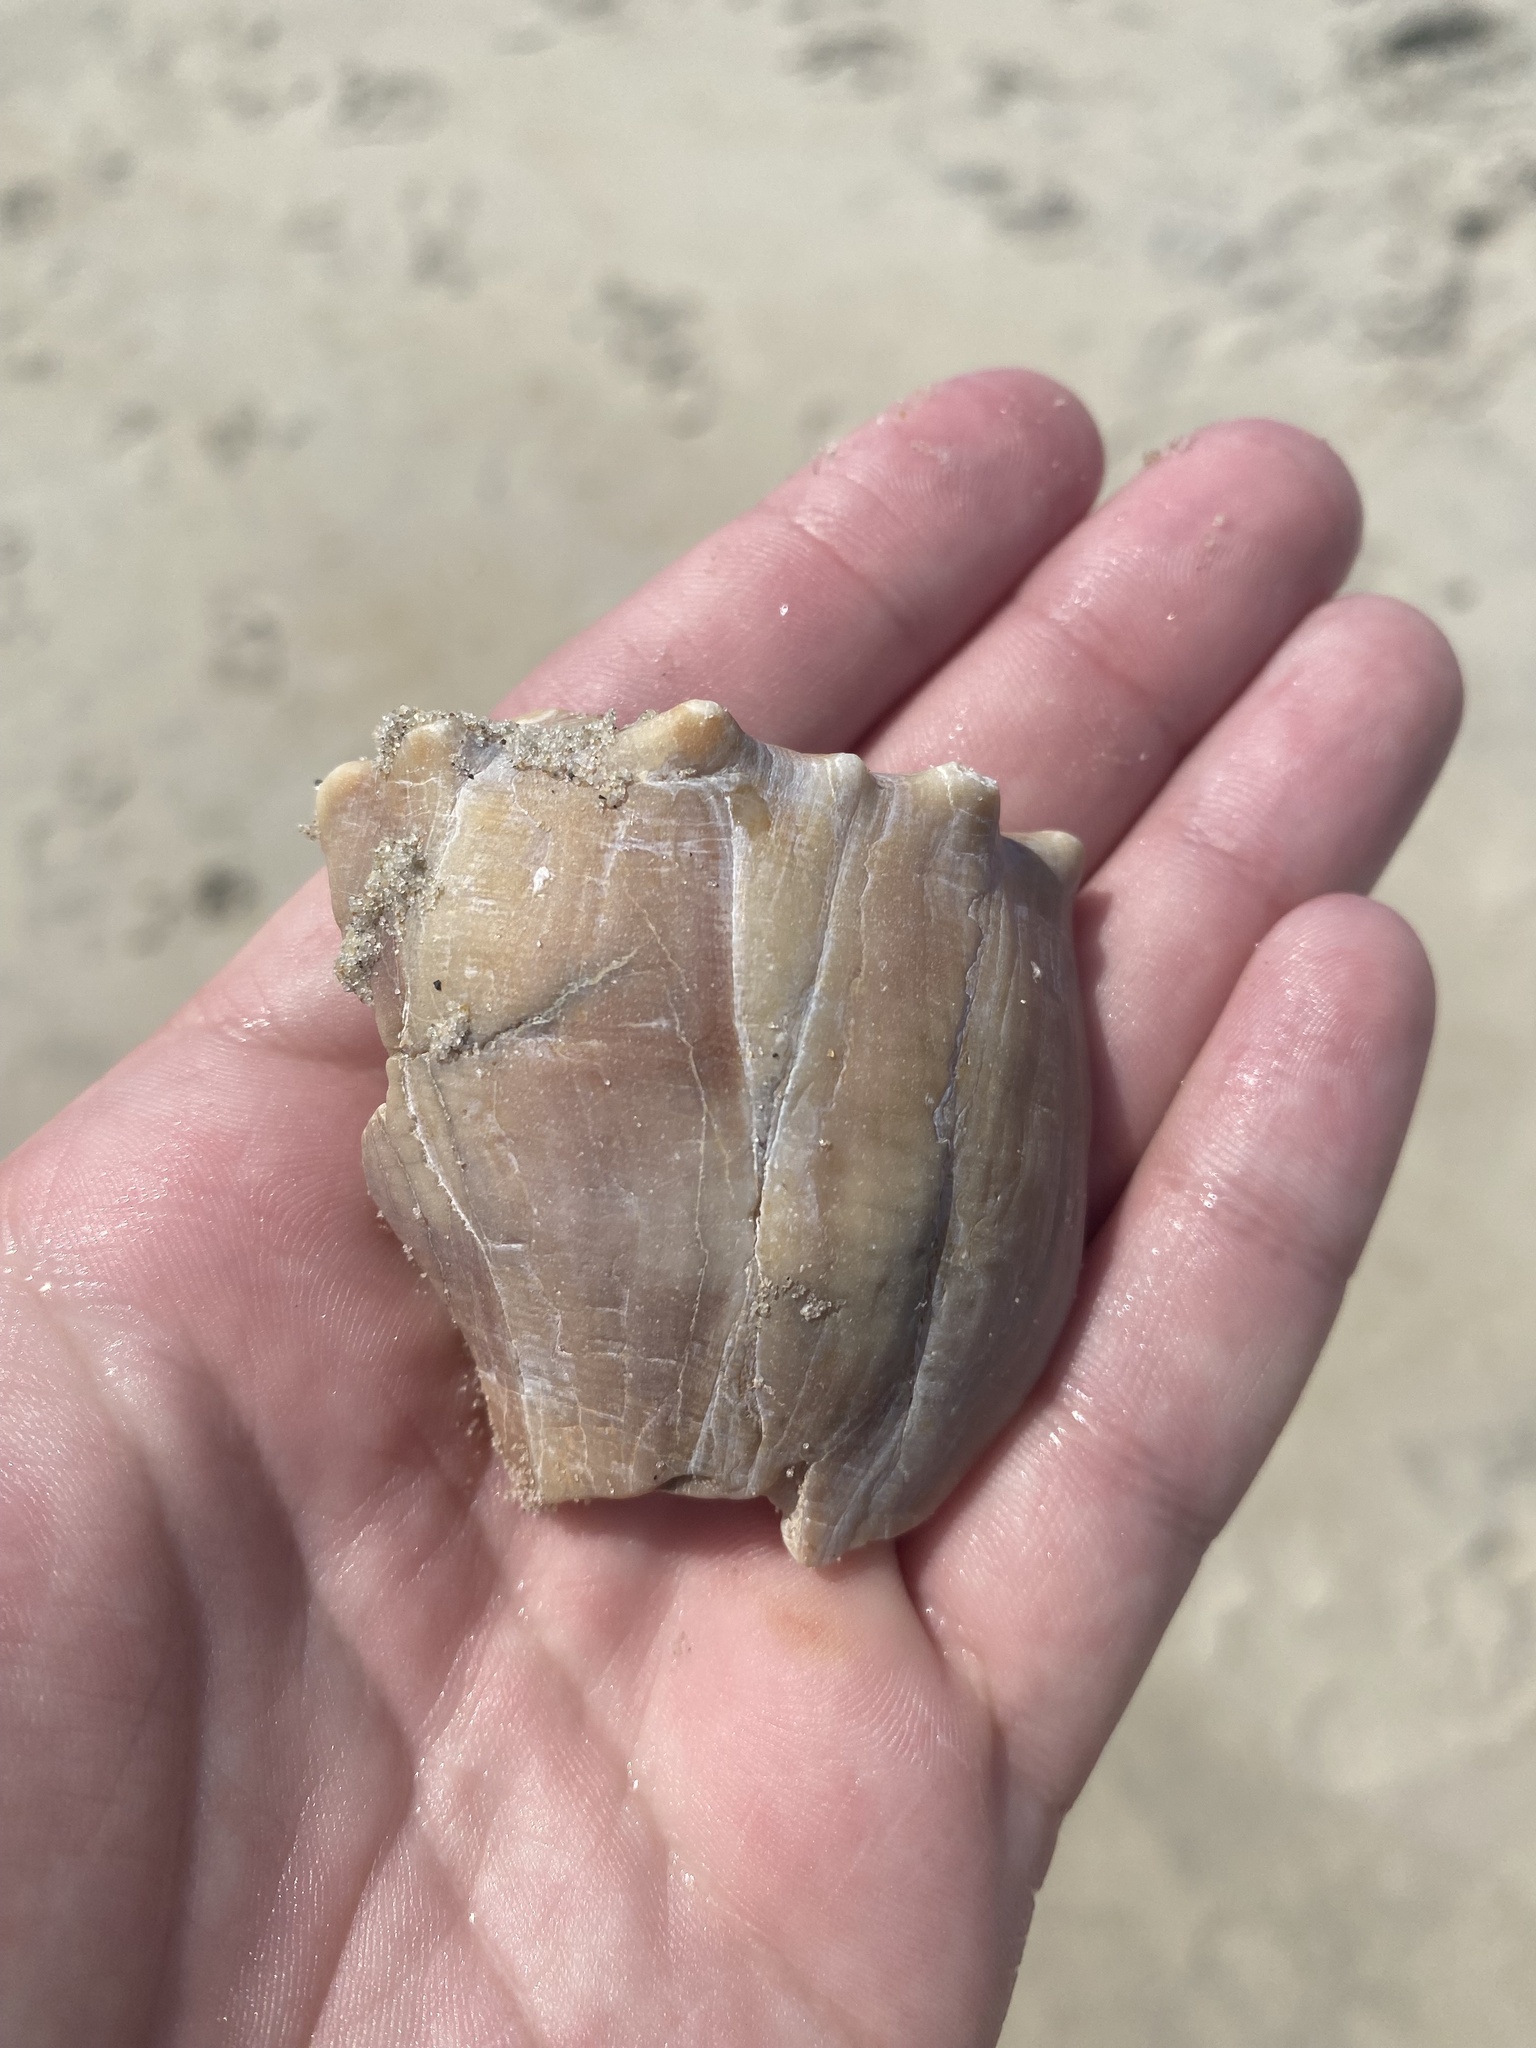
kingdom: Animalia
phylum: Mollusca
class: Gastropoda
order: Neogastropoda
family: Busyconidae
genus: Busycon
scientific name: Busycon carica
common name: Knobbed whelk
